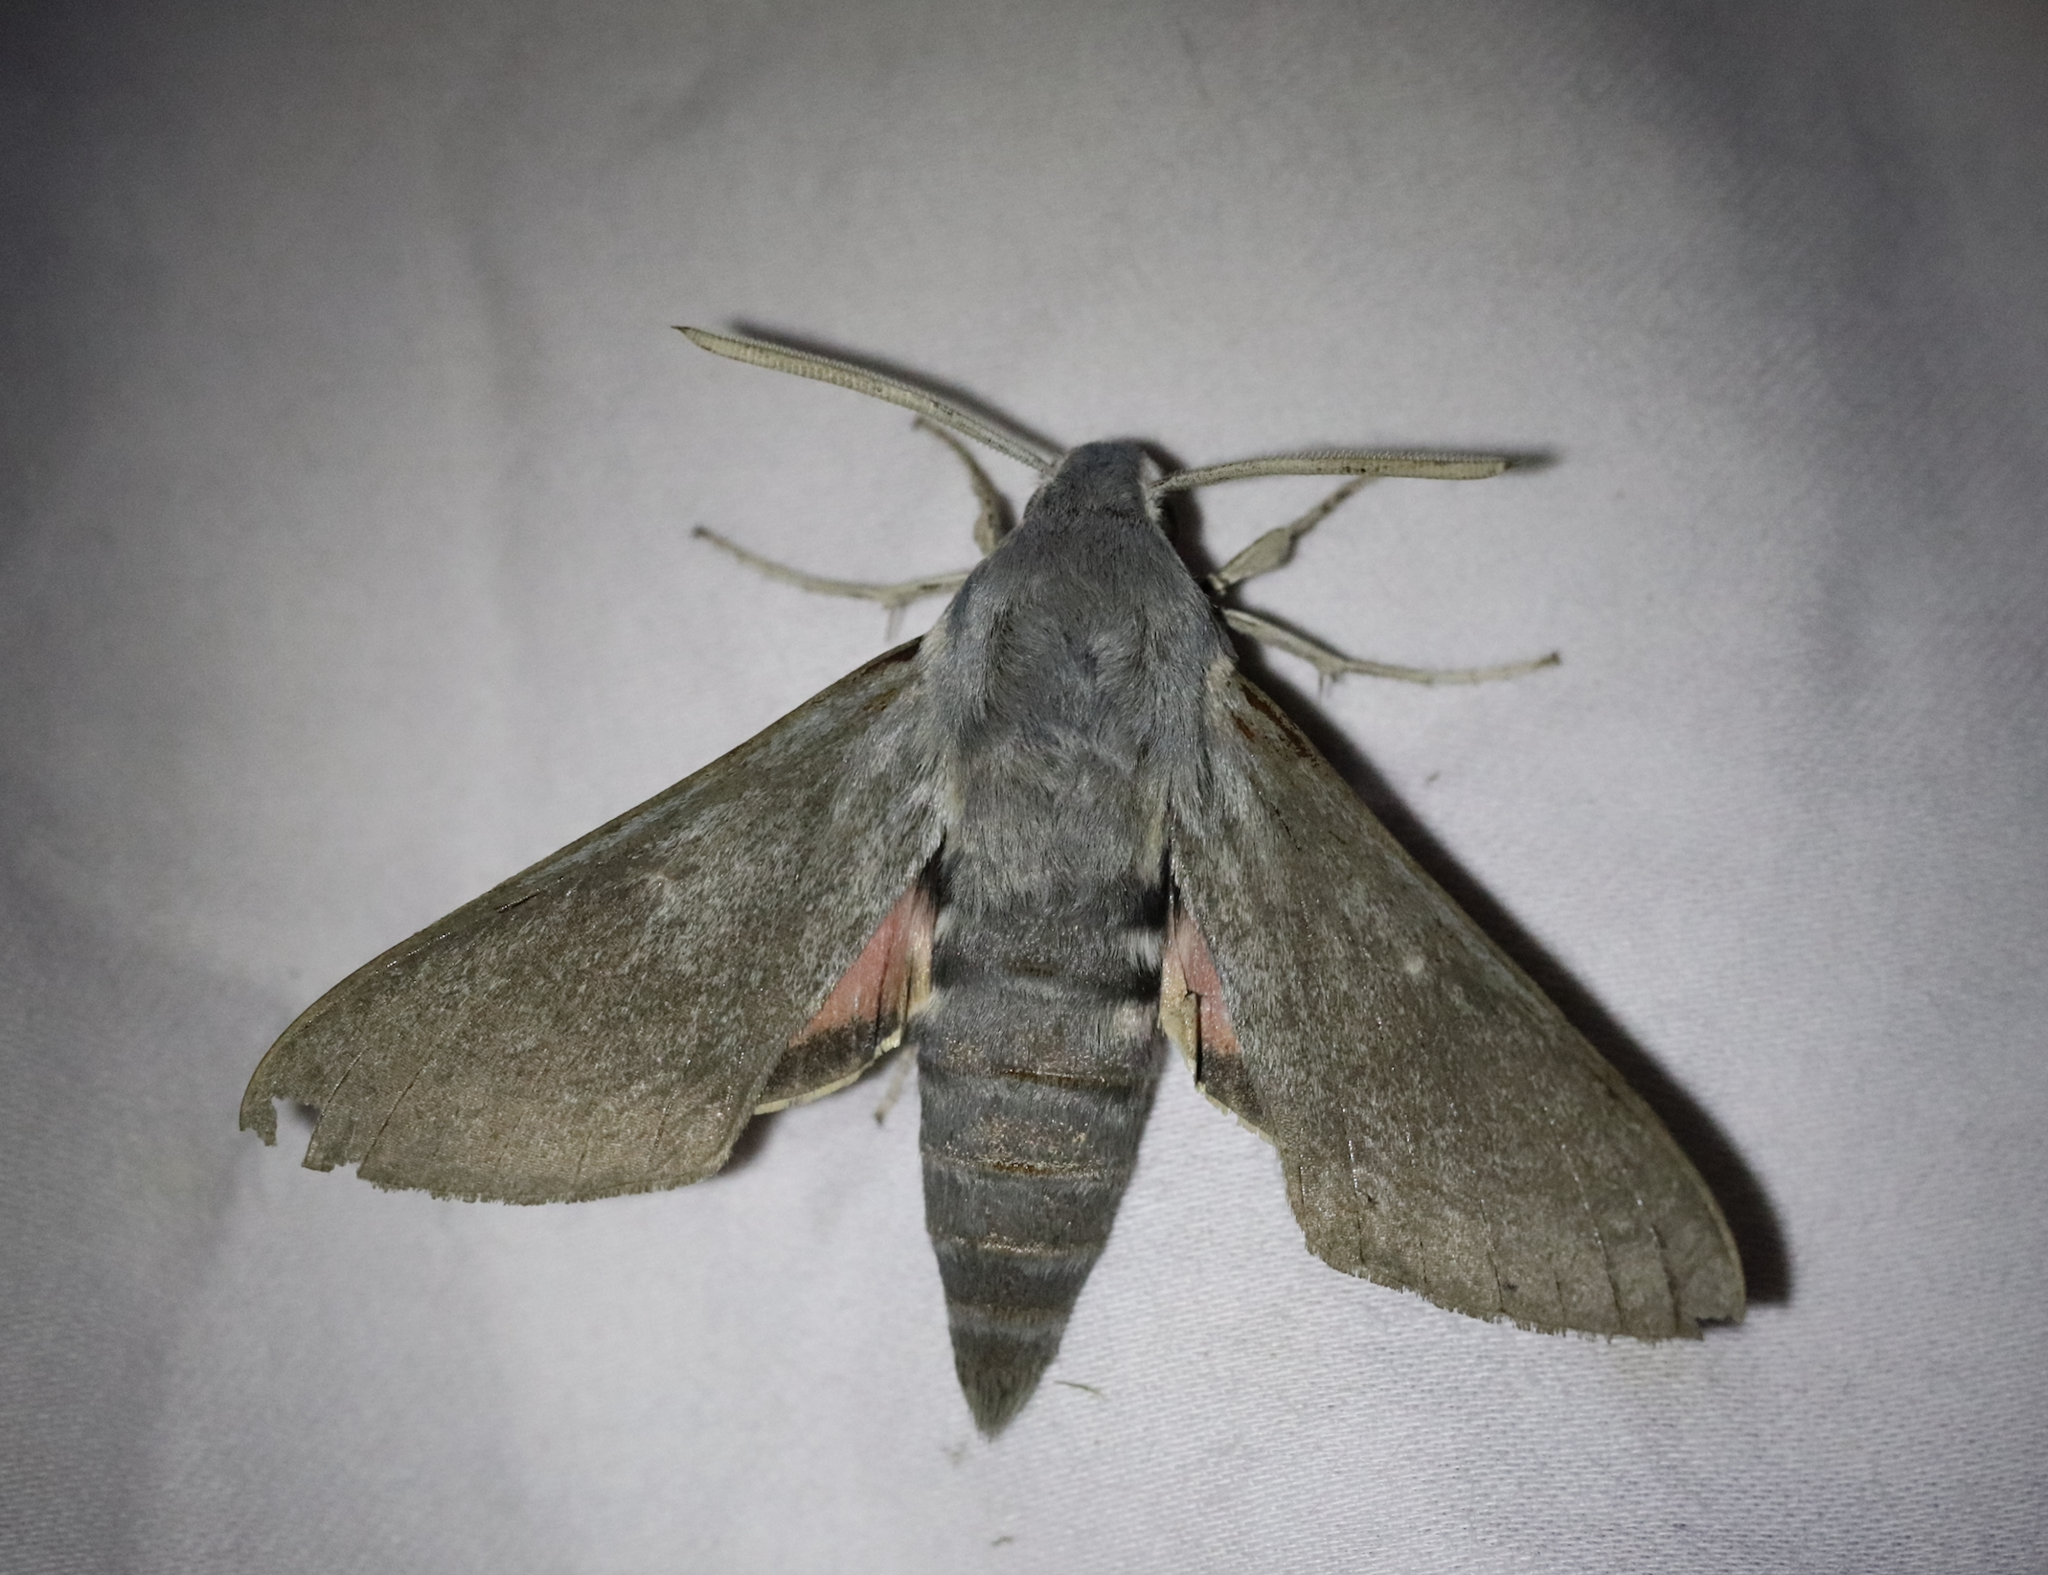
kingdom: Animalia
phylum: Arthropoda
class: Insecta
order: Lepidoptera
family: Sphingidae
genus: Hyles
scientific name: Hyles vespertilio
